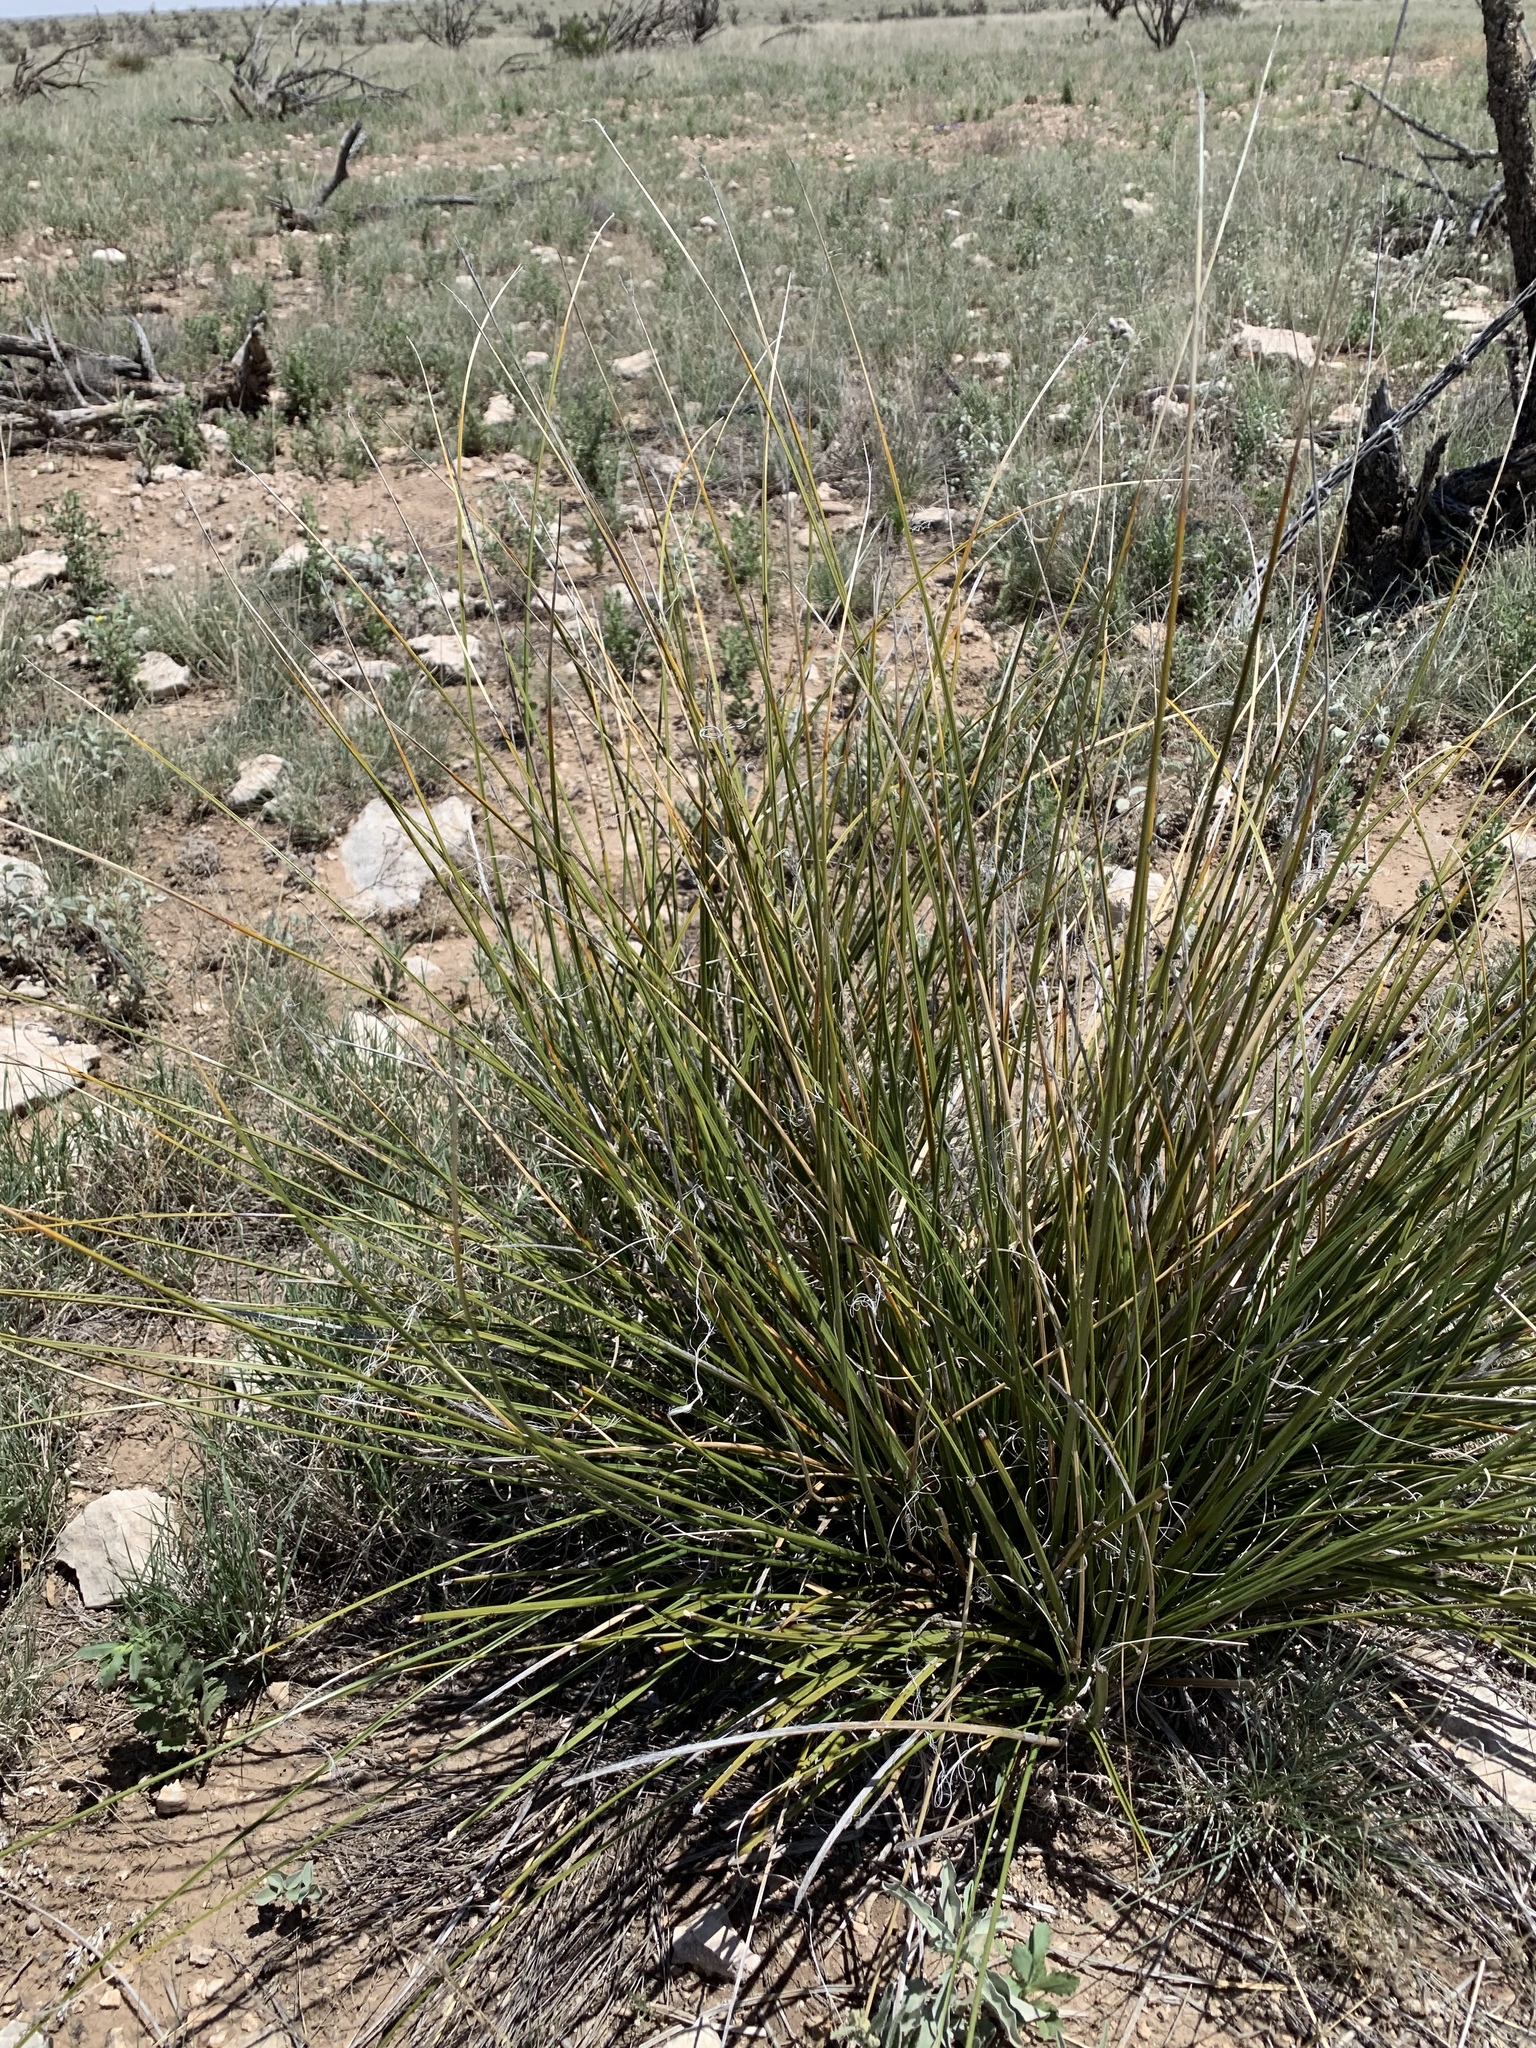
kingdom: Plantae
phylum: Tracheophyta
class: Liliopsida
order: Asparagales
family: Asparagaceae
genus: Nolina
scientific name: Nolina texana
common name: Texas sacahuiste
